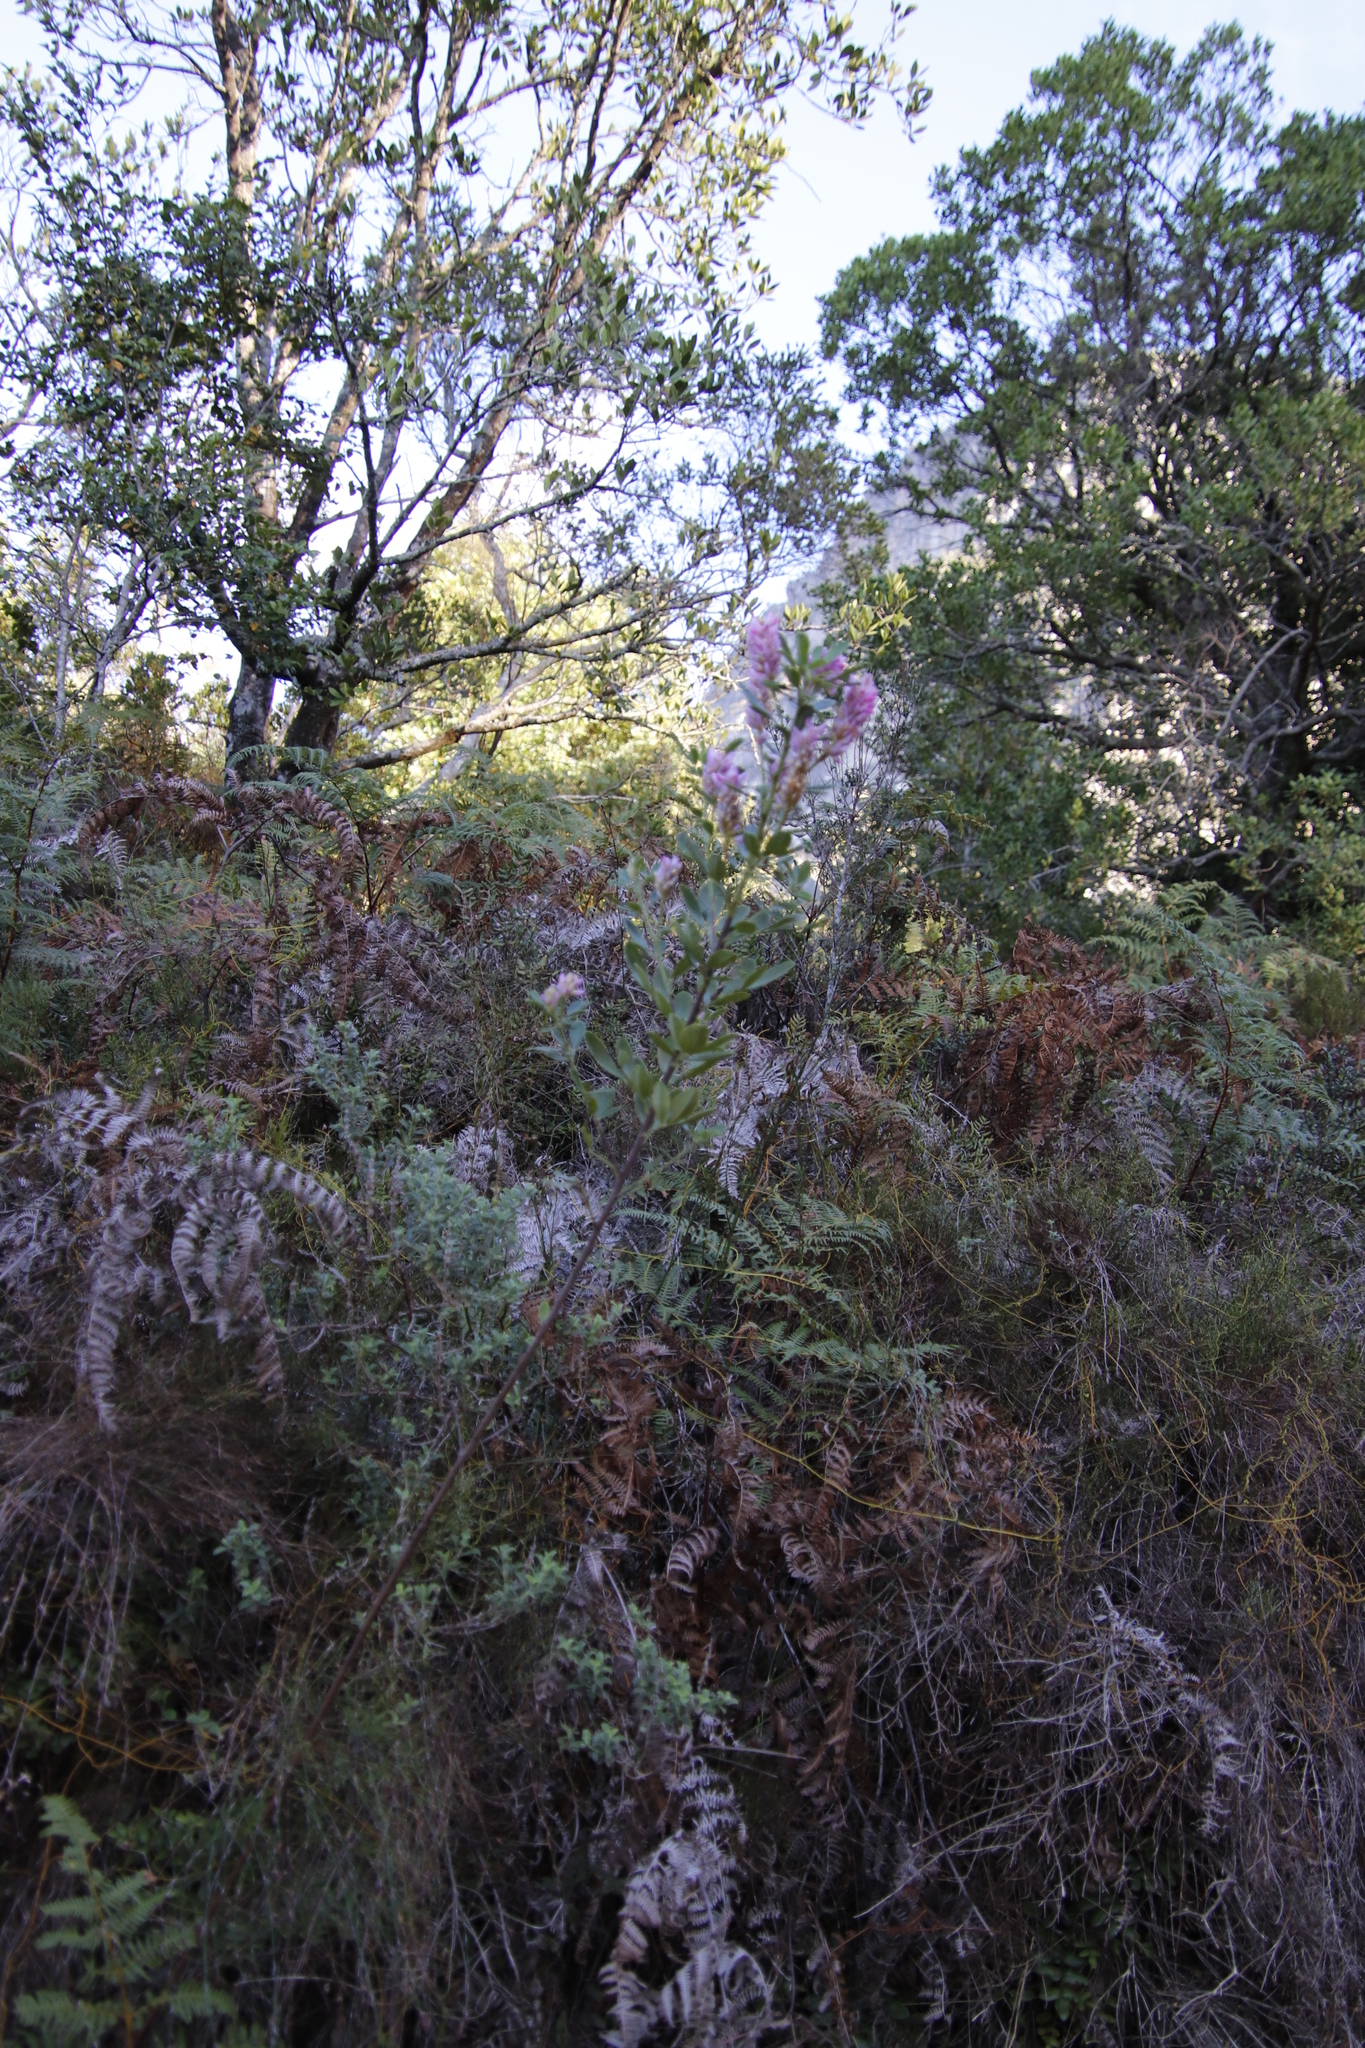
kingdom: Plantae
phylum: Tracheophyta
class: Magnoliopsida
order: Fabales
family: Fabaceae
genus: Indigofera
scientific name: Indigofera cytisoides
